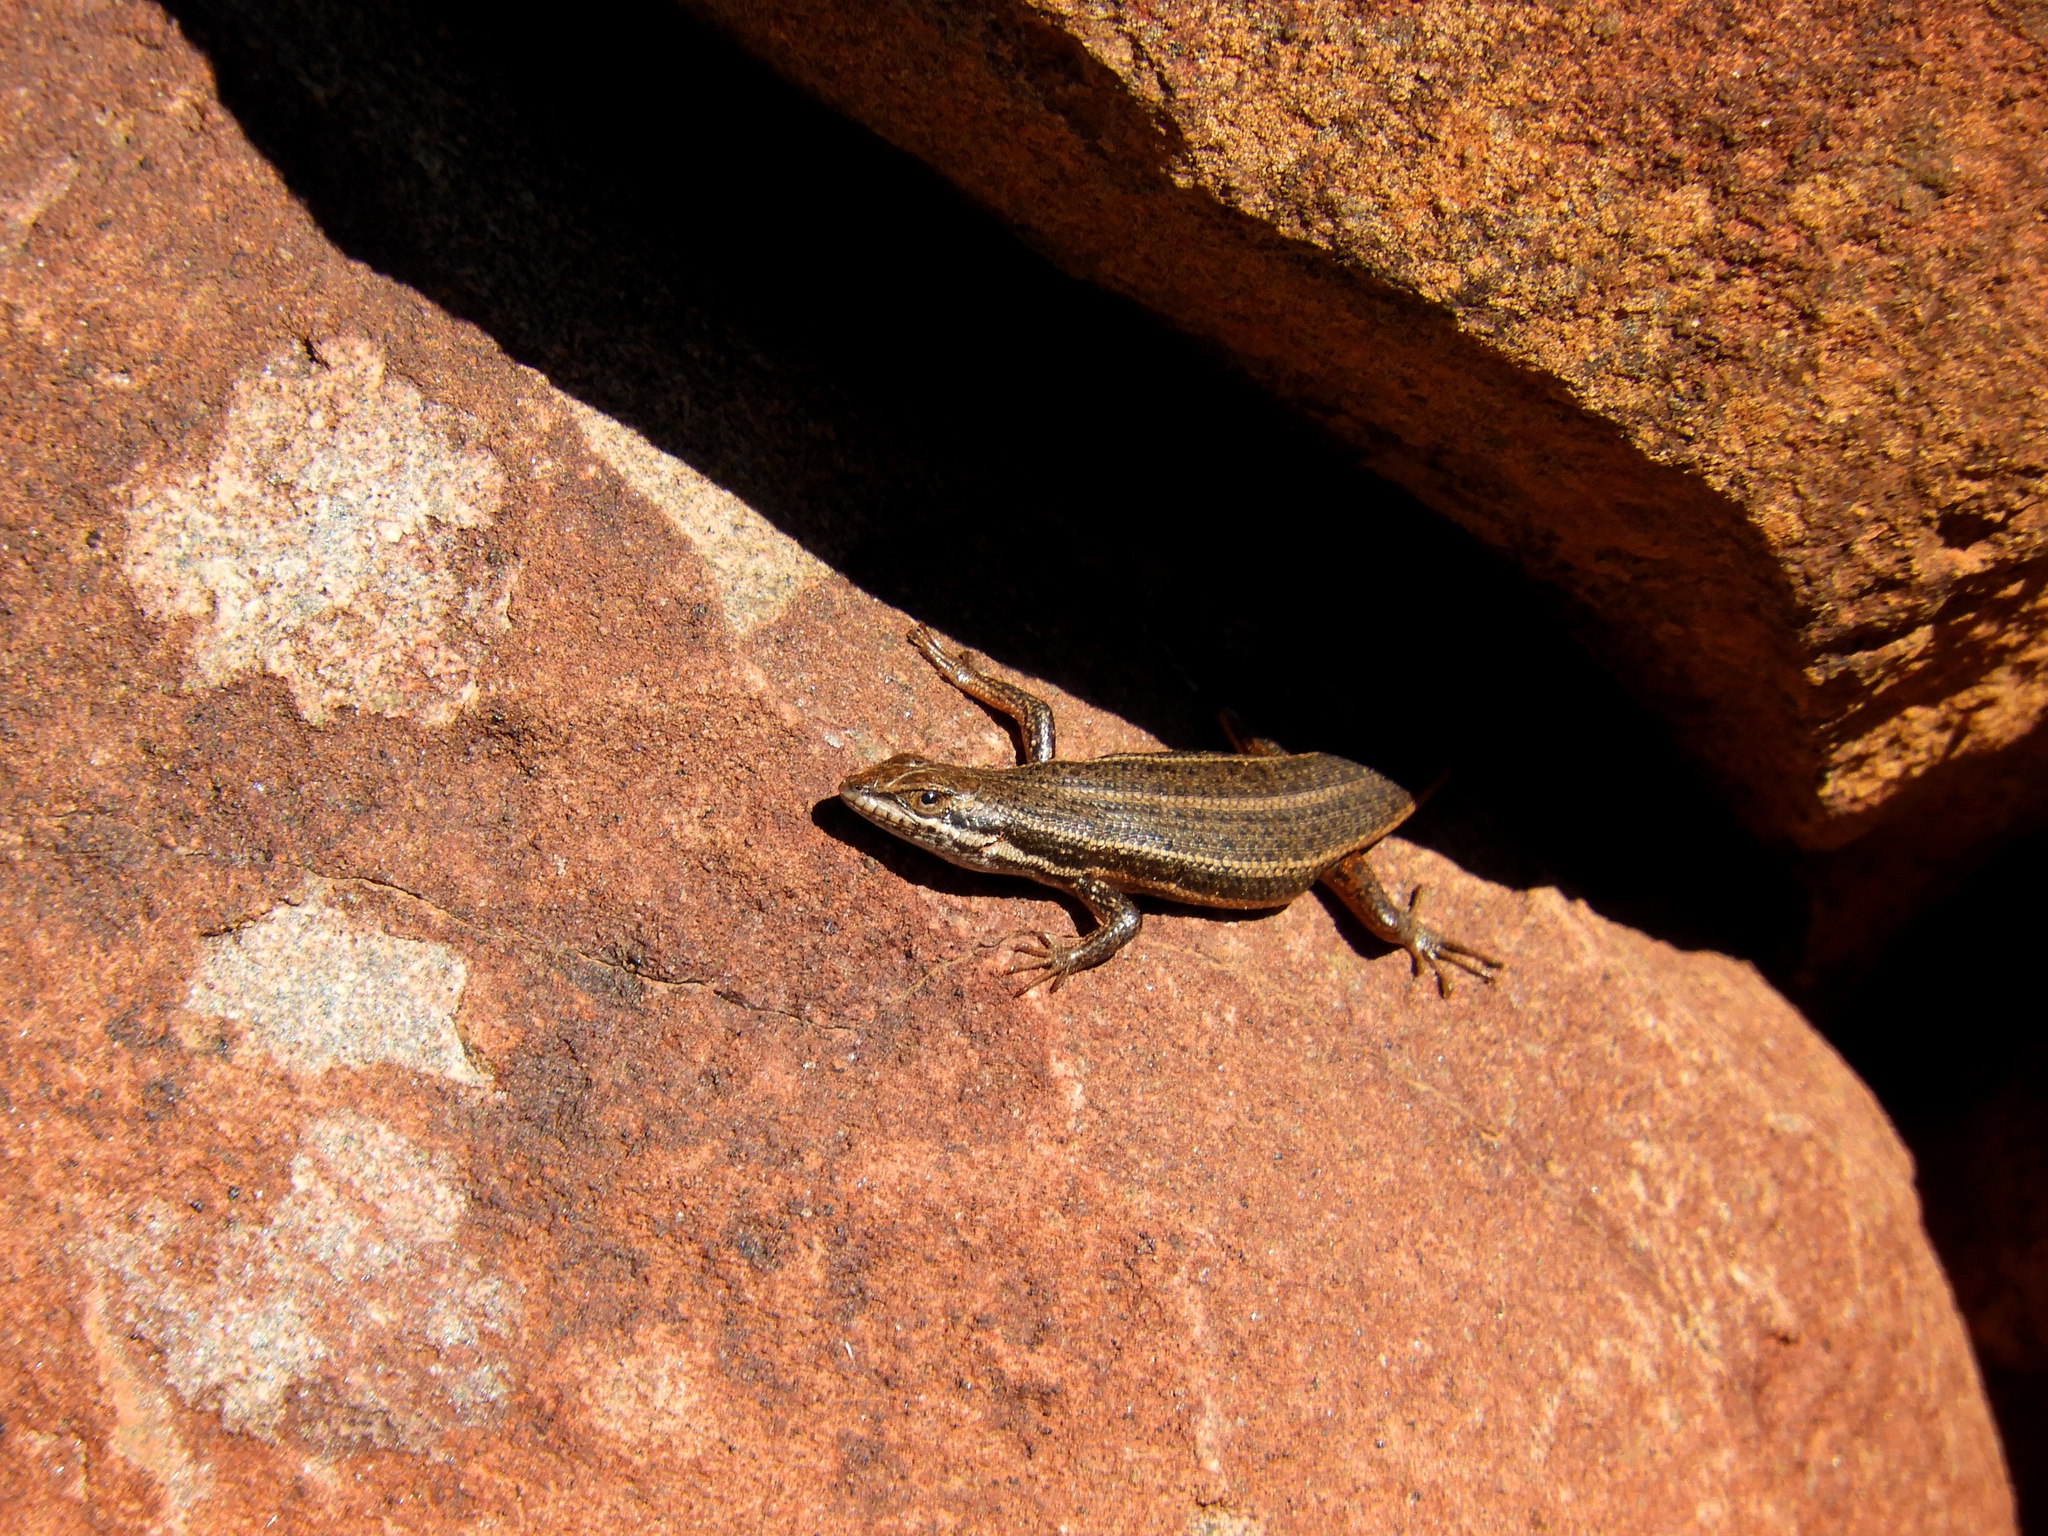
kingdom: Animalia
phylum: Chordata
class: Squamata
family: Scincidae
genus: Trachylepis
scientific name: Trachylepis variegata
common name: Variegated skink
